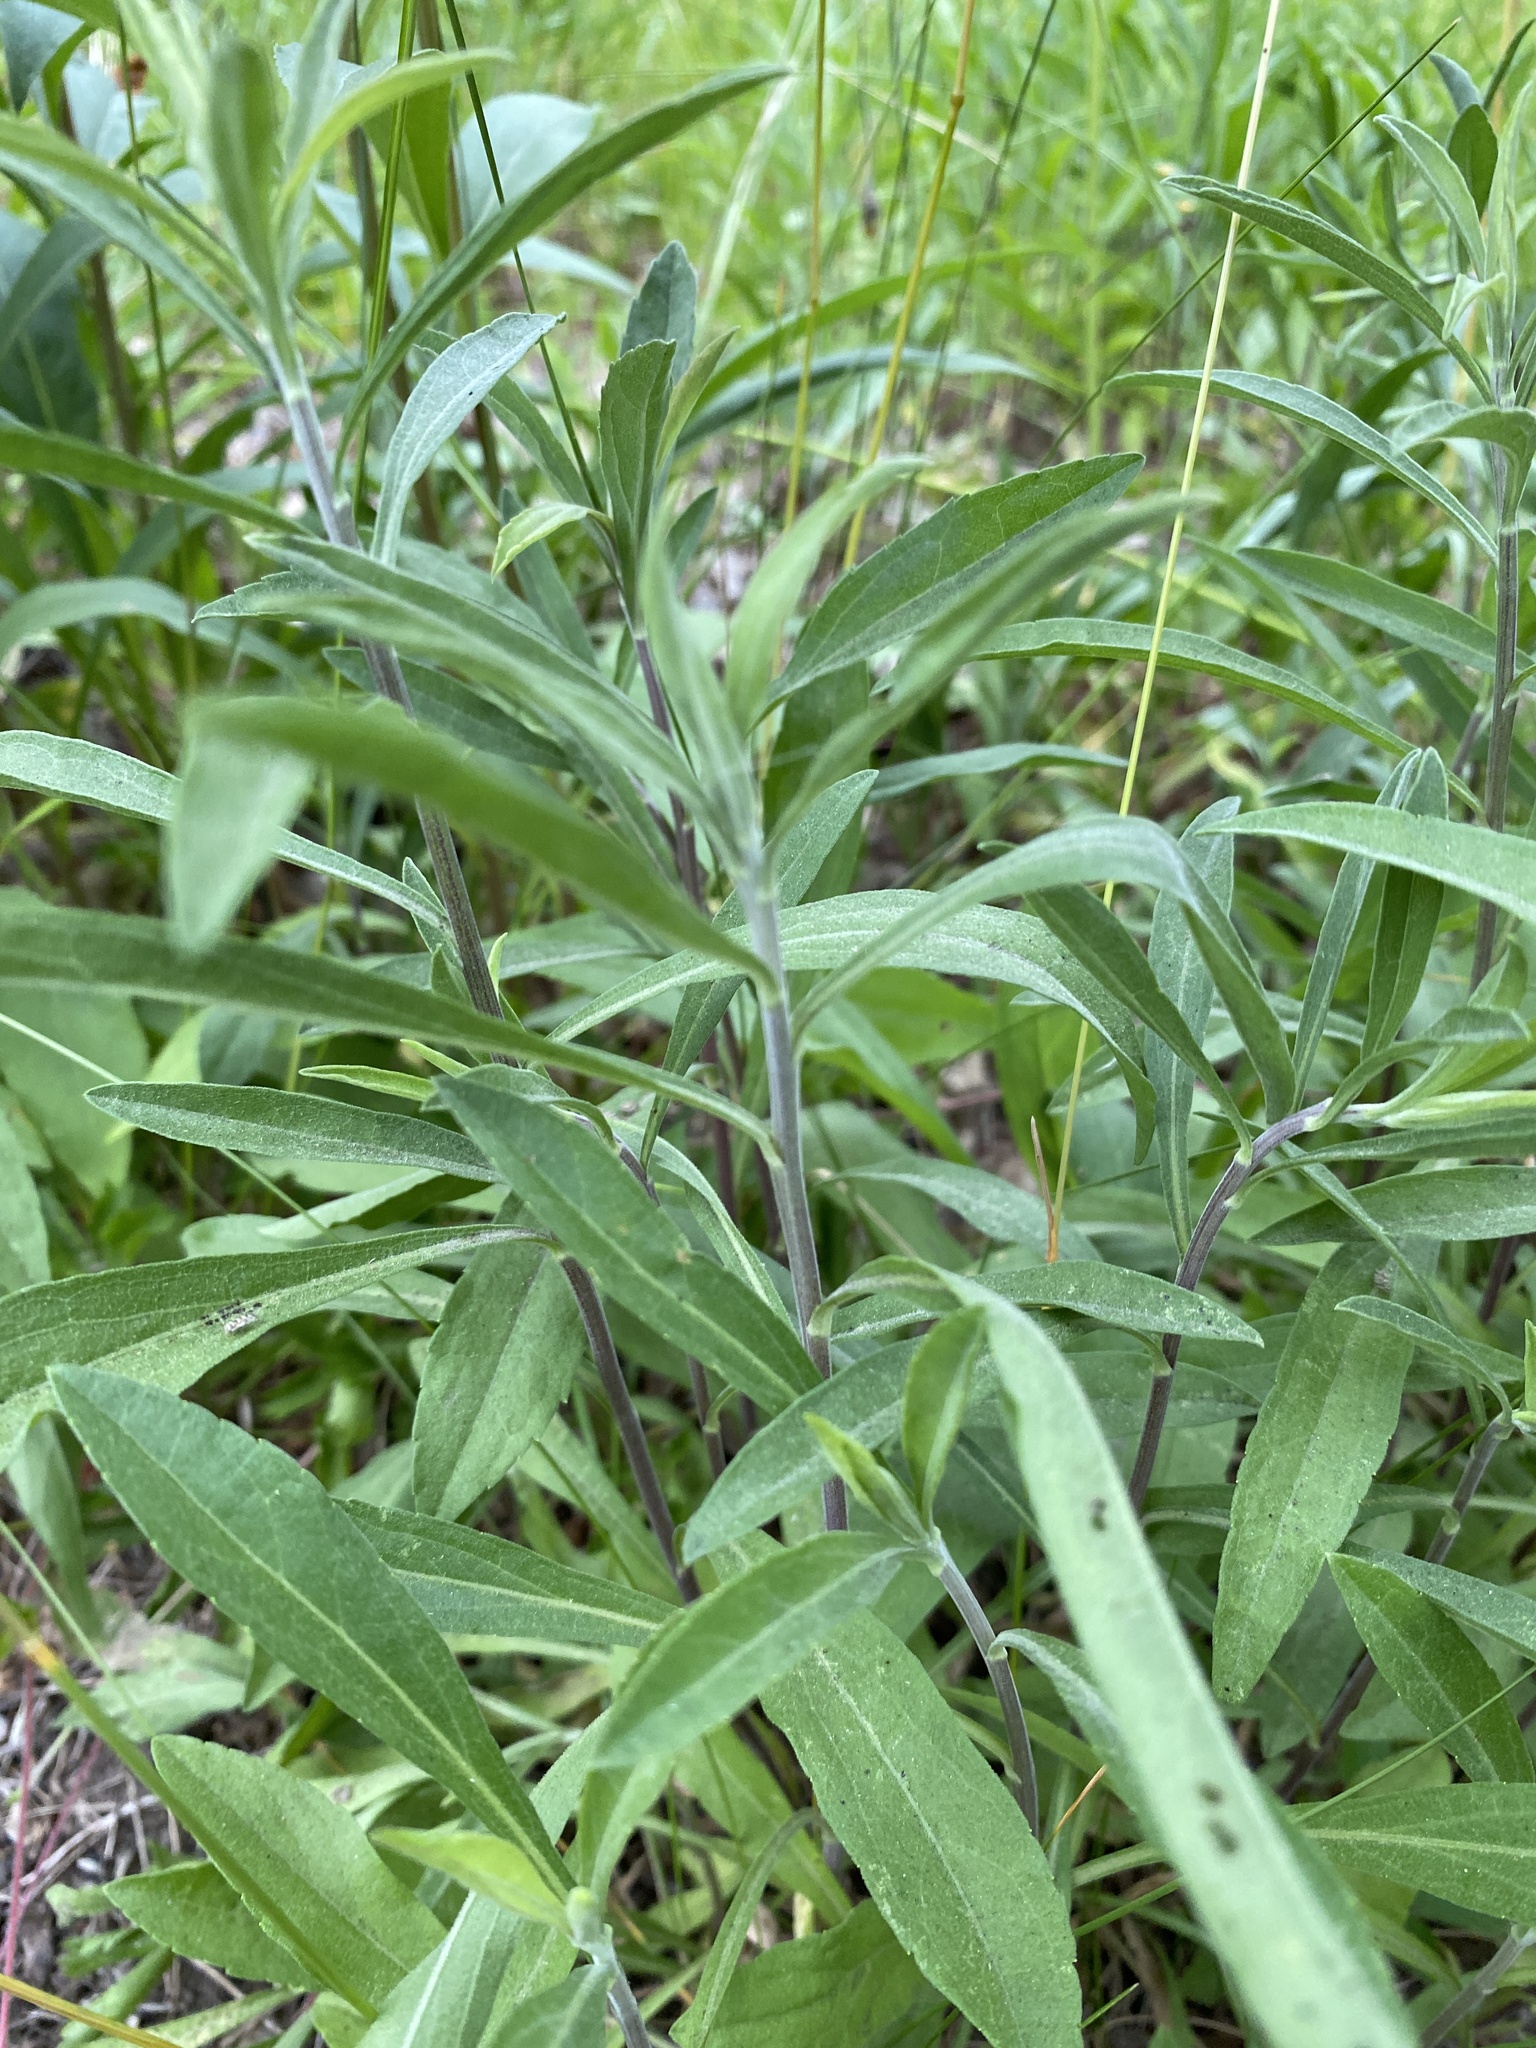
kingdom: Plantae
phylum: Tracheophyta
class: Magnoliopsida
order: Asterales
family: Asteraceae
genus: Solidago
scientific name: Solidago nemoralis
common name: Grey goldenrod
